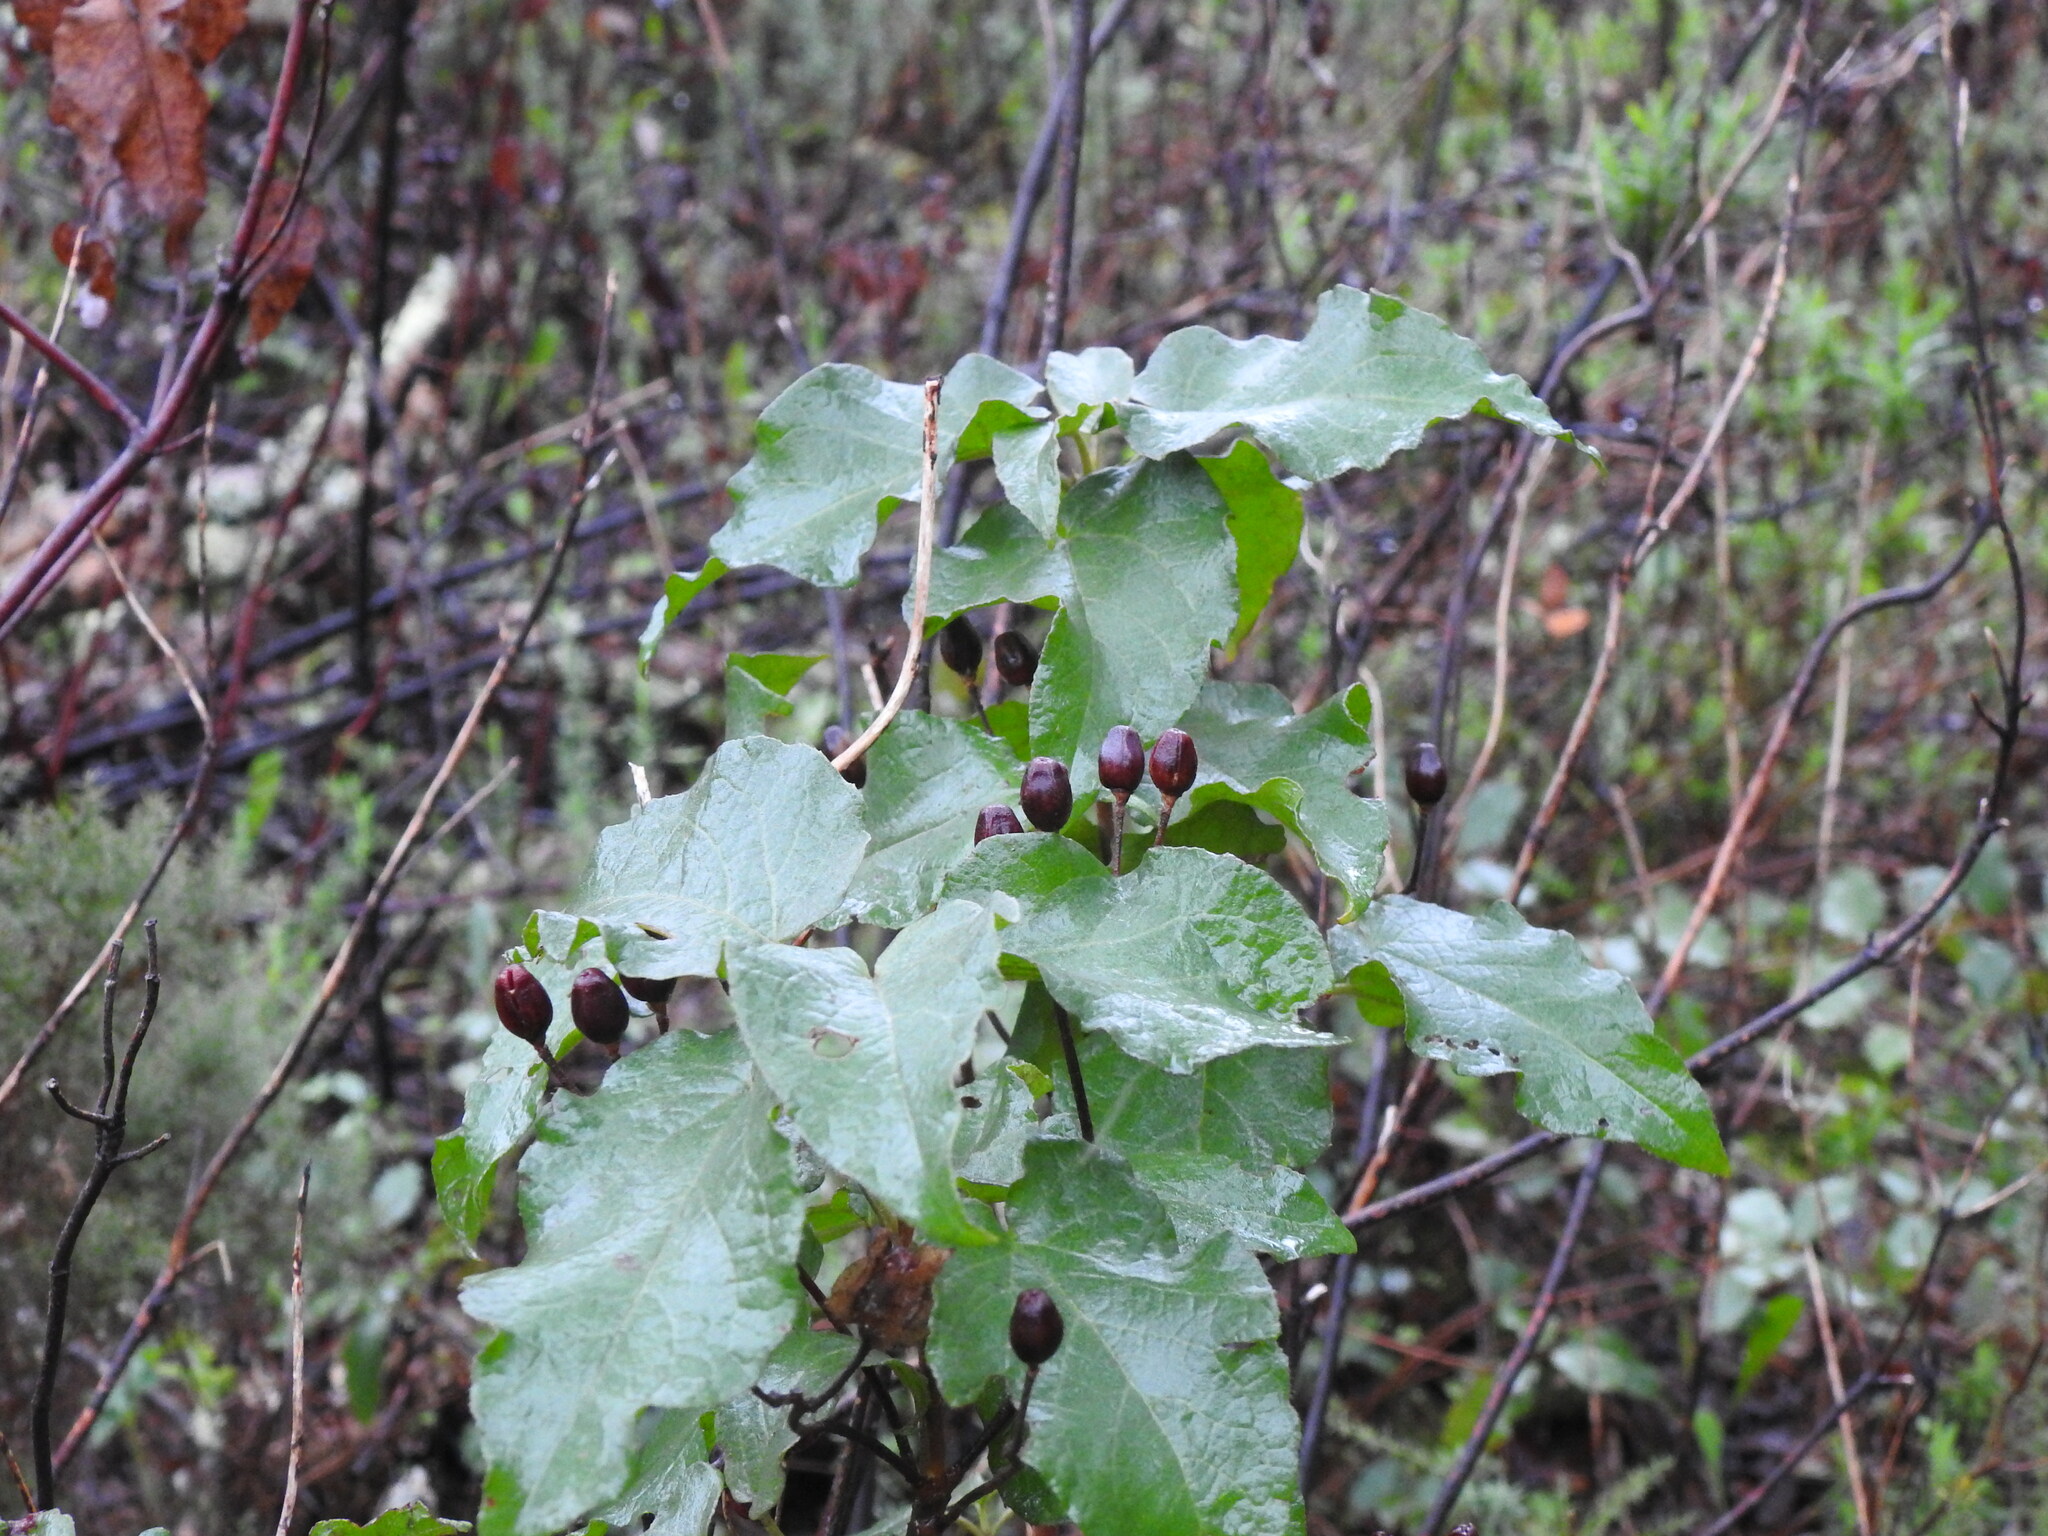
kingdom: Plantae
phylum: Tracheophyta
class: Magnoliopsida
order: Malvales
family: Cistaceae
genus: Cistus
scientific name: Cistus populifolius
